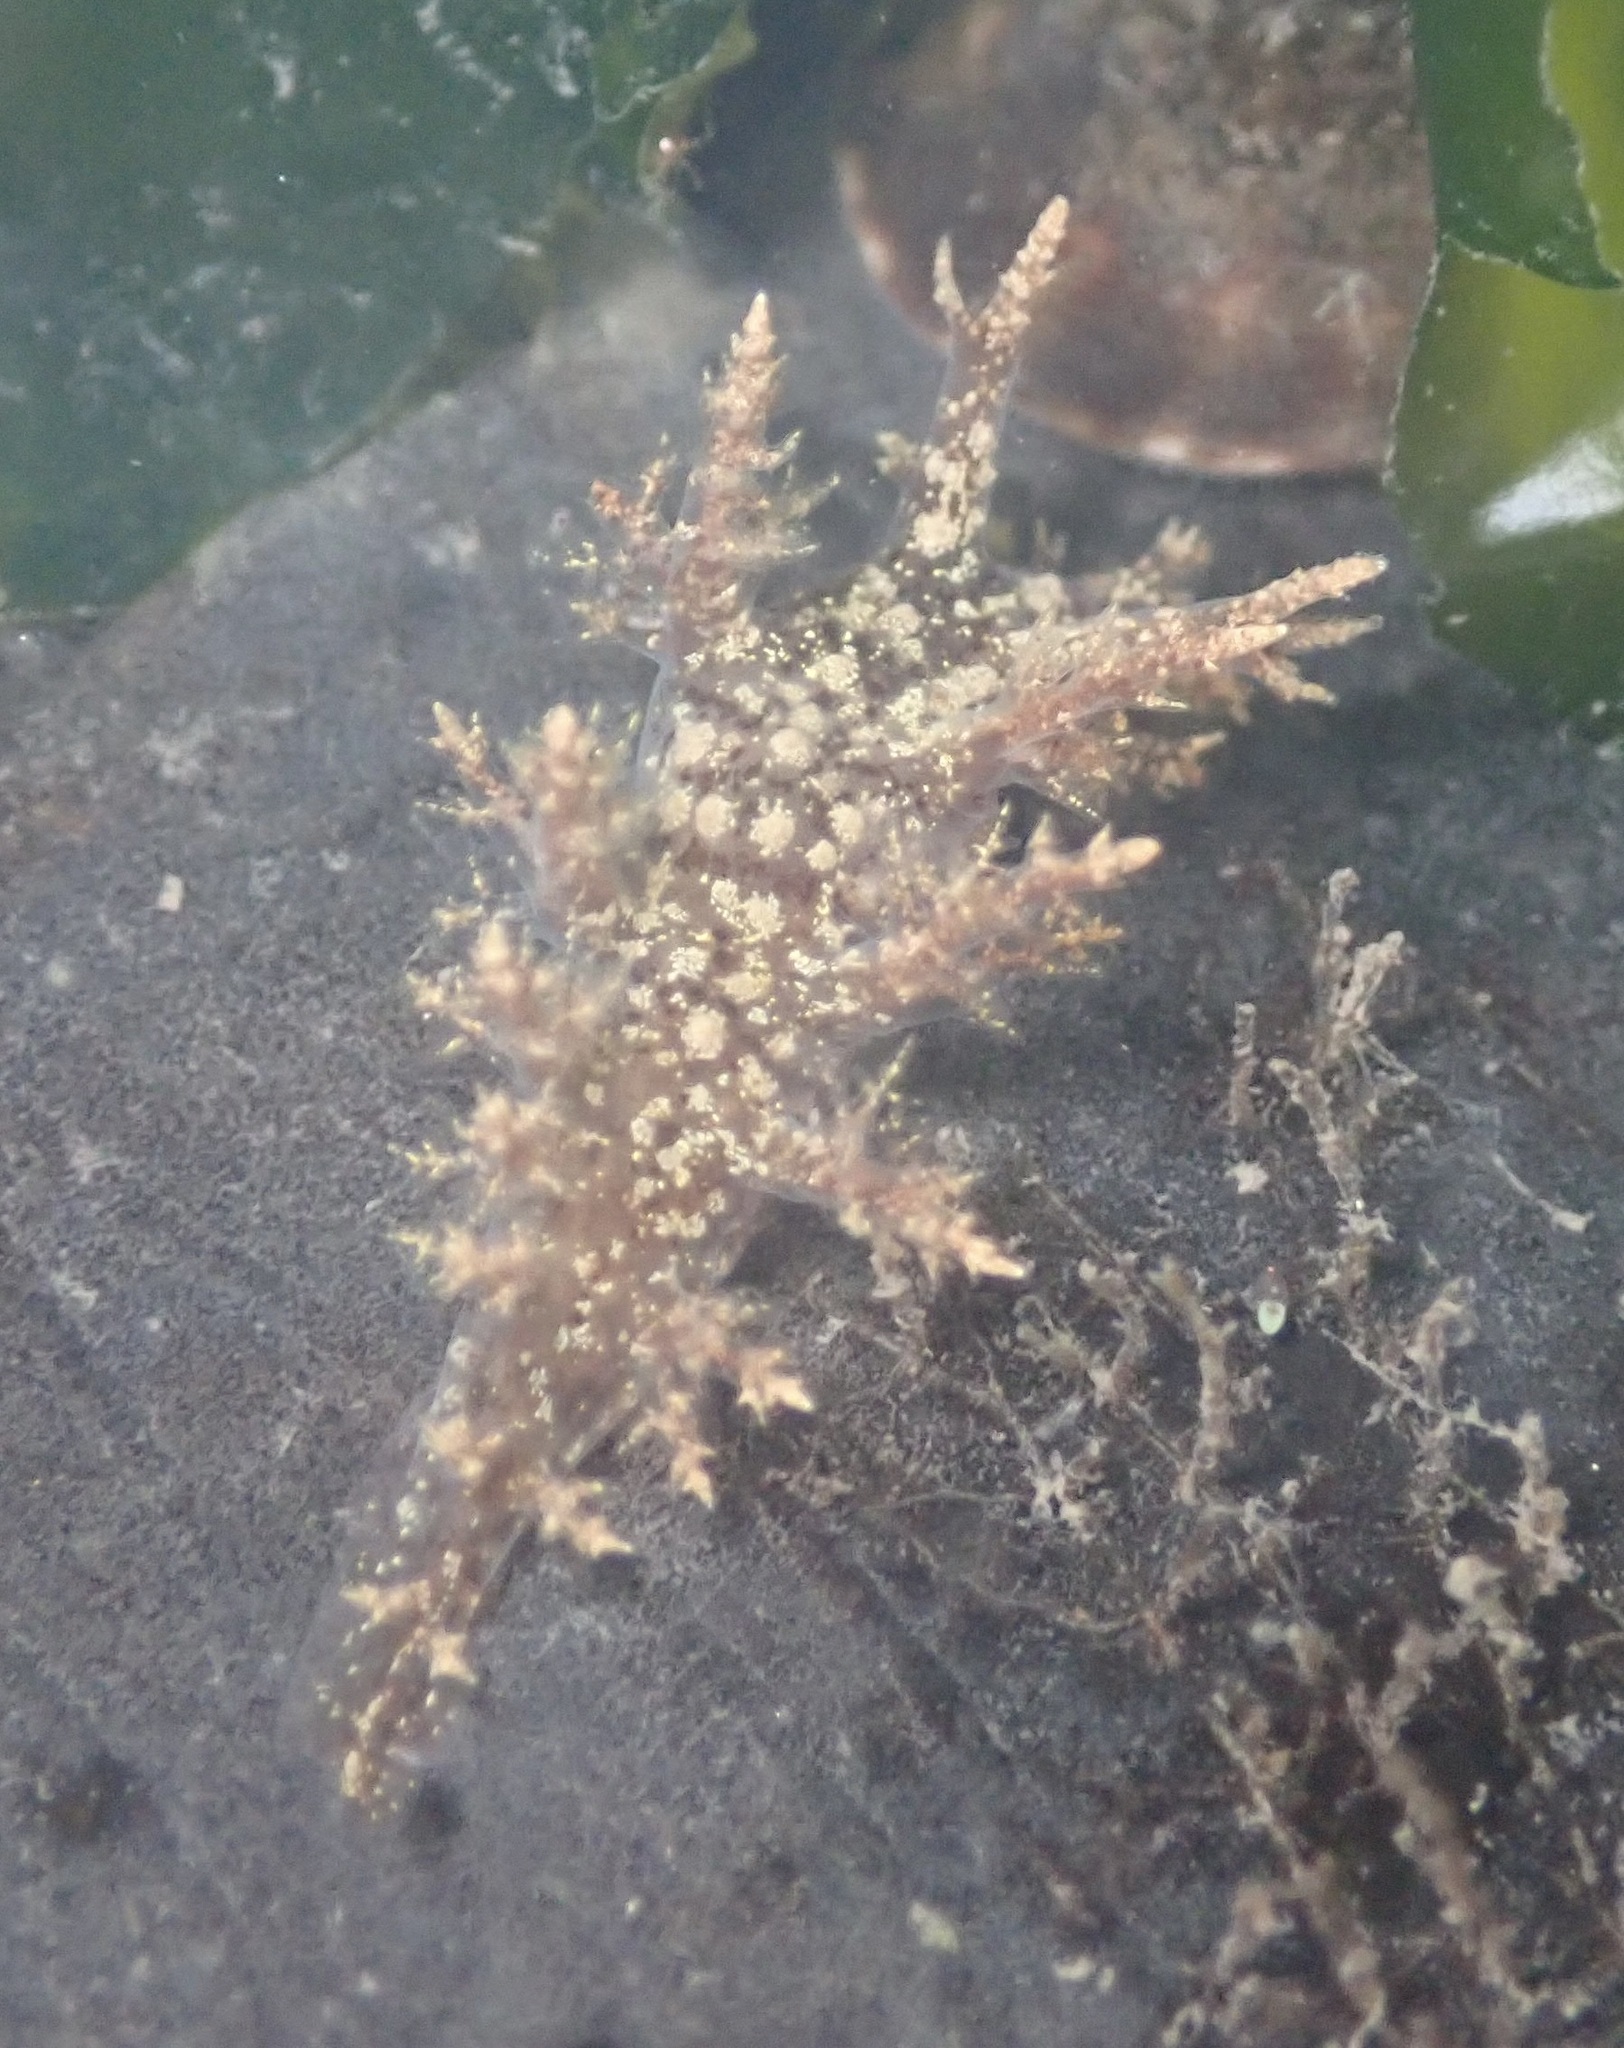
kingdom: Animalia
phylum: Mollusca
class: Gastropoda
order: Nudibranchia
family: Dendronotidae
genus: Dendronotus
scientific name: Dendronotus venustus
